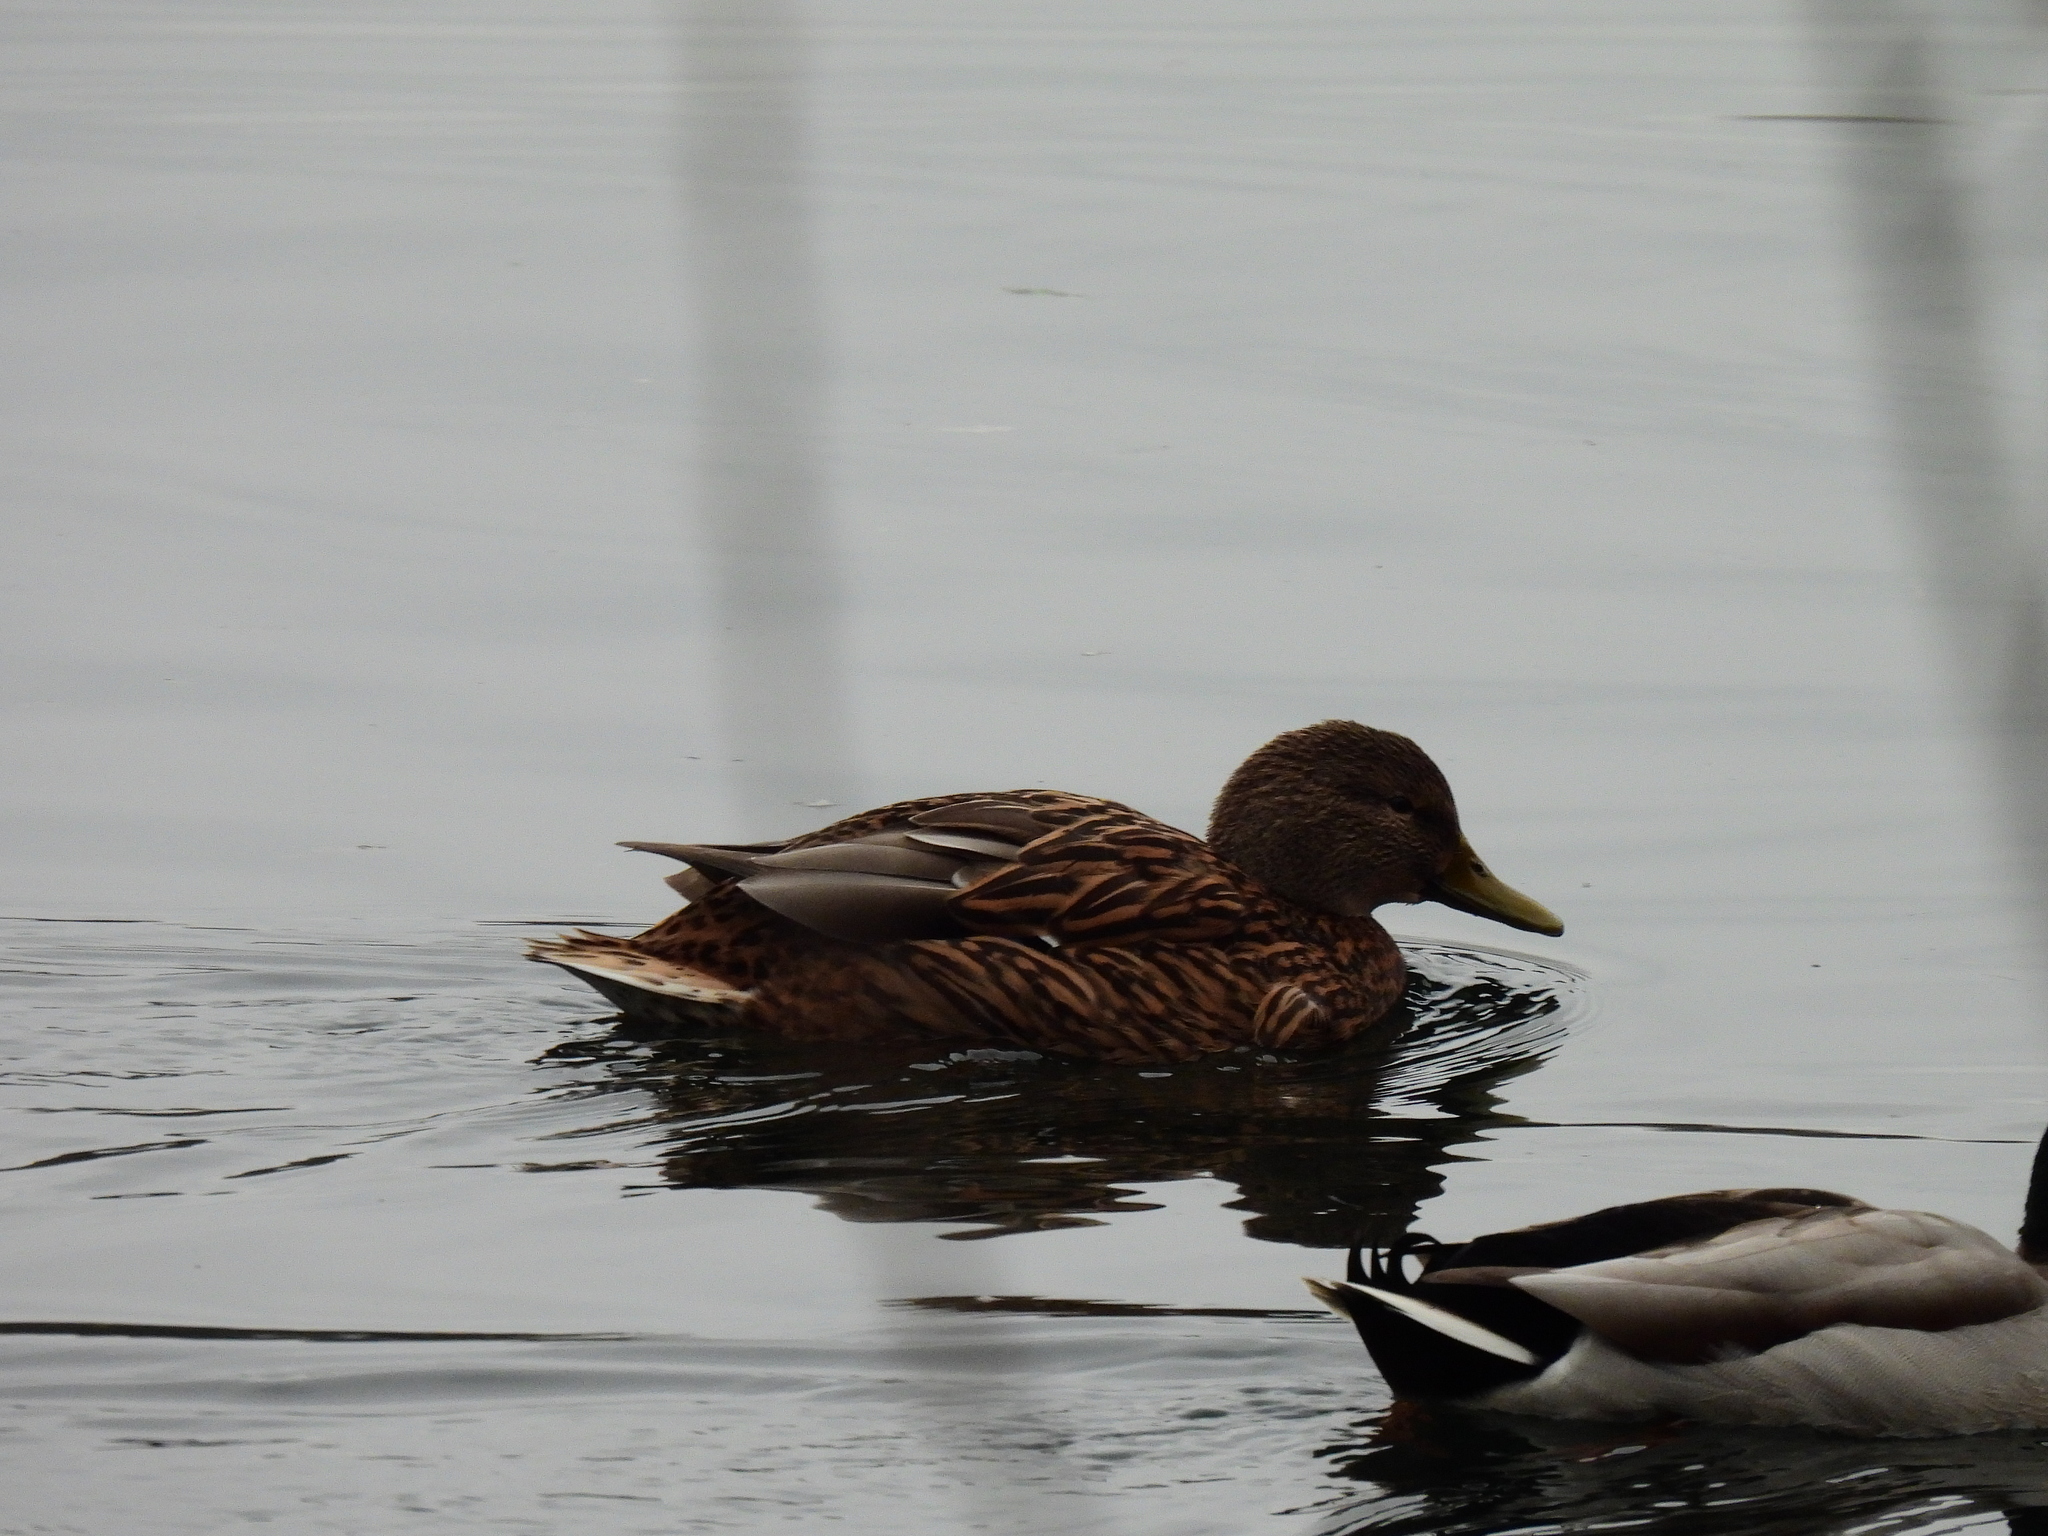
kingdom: Animalia
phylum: Chordata
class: Aves
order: Anseriformes
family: Anatidae
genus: Anas
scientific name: Anas platyrhynchos
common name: Mallard
